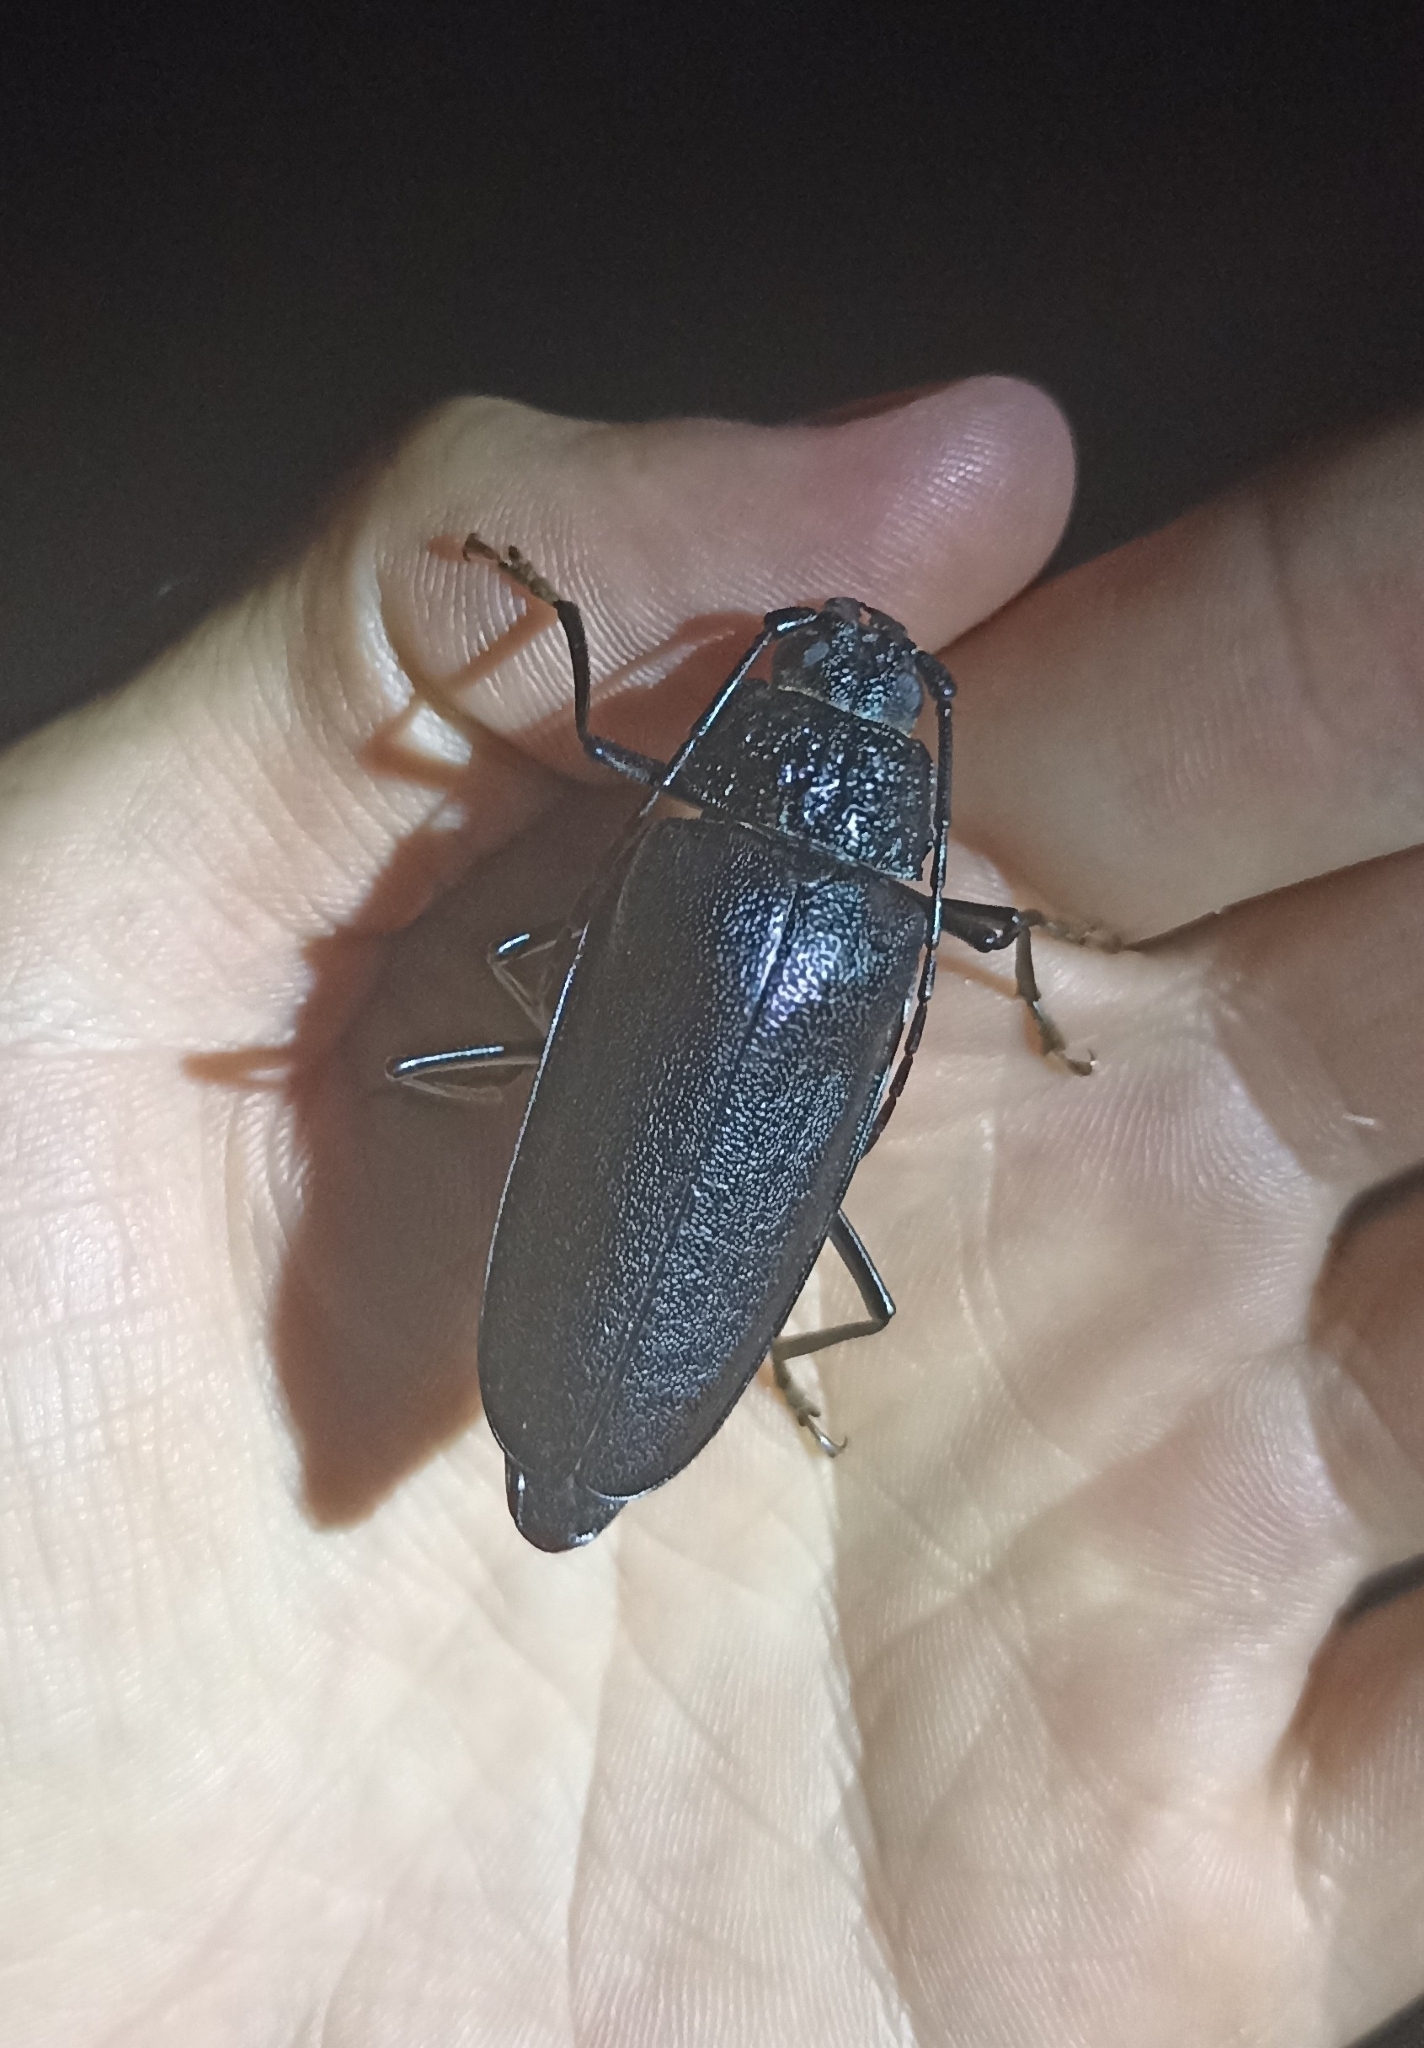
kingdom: Animalia
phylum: Arthropoda
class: Insecta
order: Coleoptera
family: Cerambycidae
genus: Ergates
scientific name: Ergates faber
